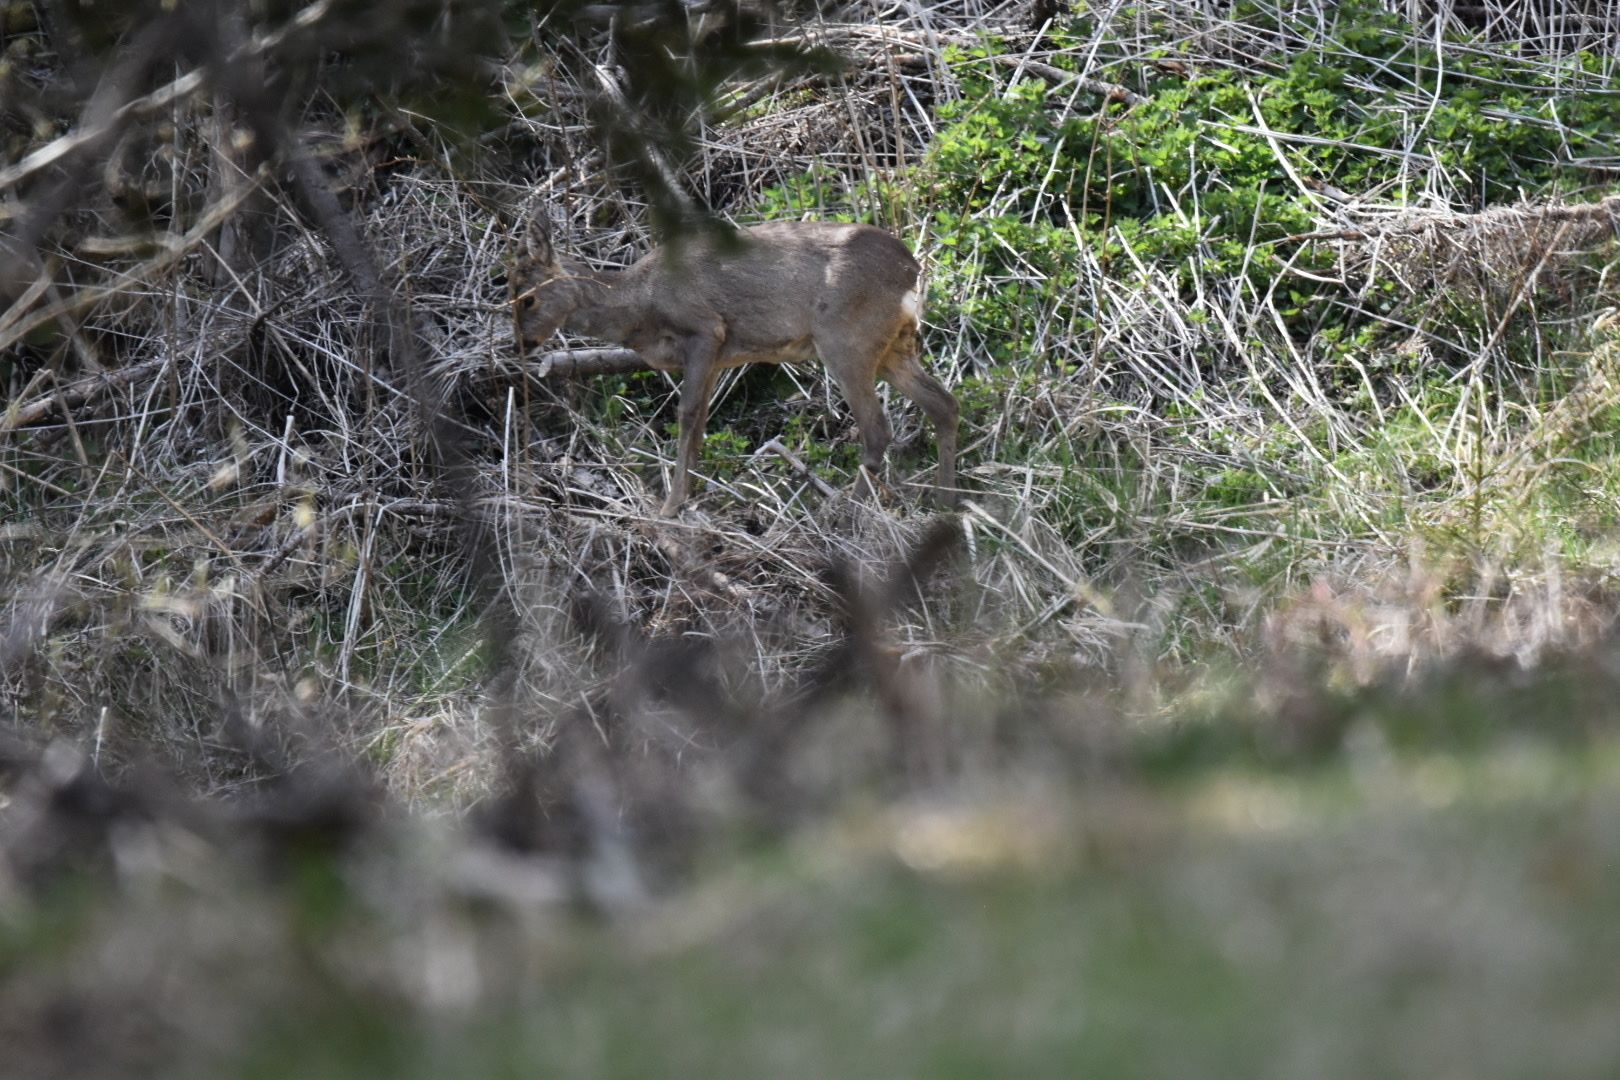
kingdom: Animalia
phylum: Chordata
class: Mammalia
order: Artiodactyla
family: Cervidae
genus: Capreolus
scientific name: Capreolus capreolus
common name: Western roe deer
